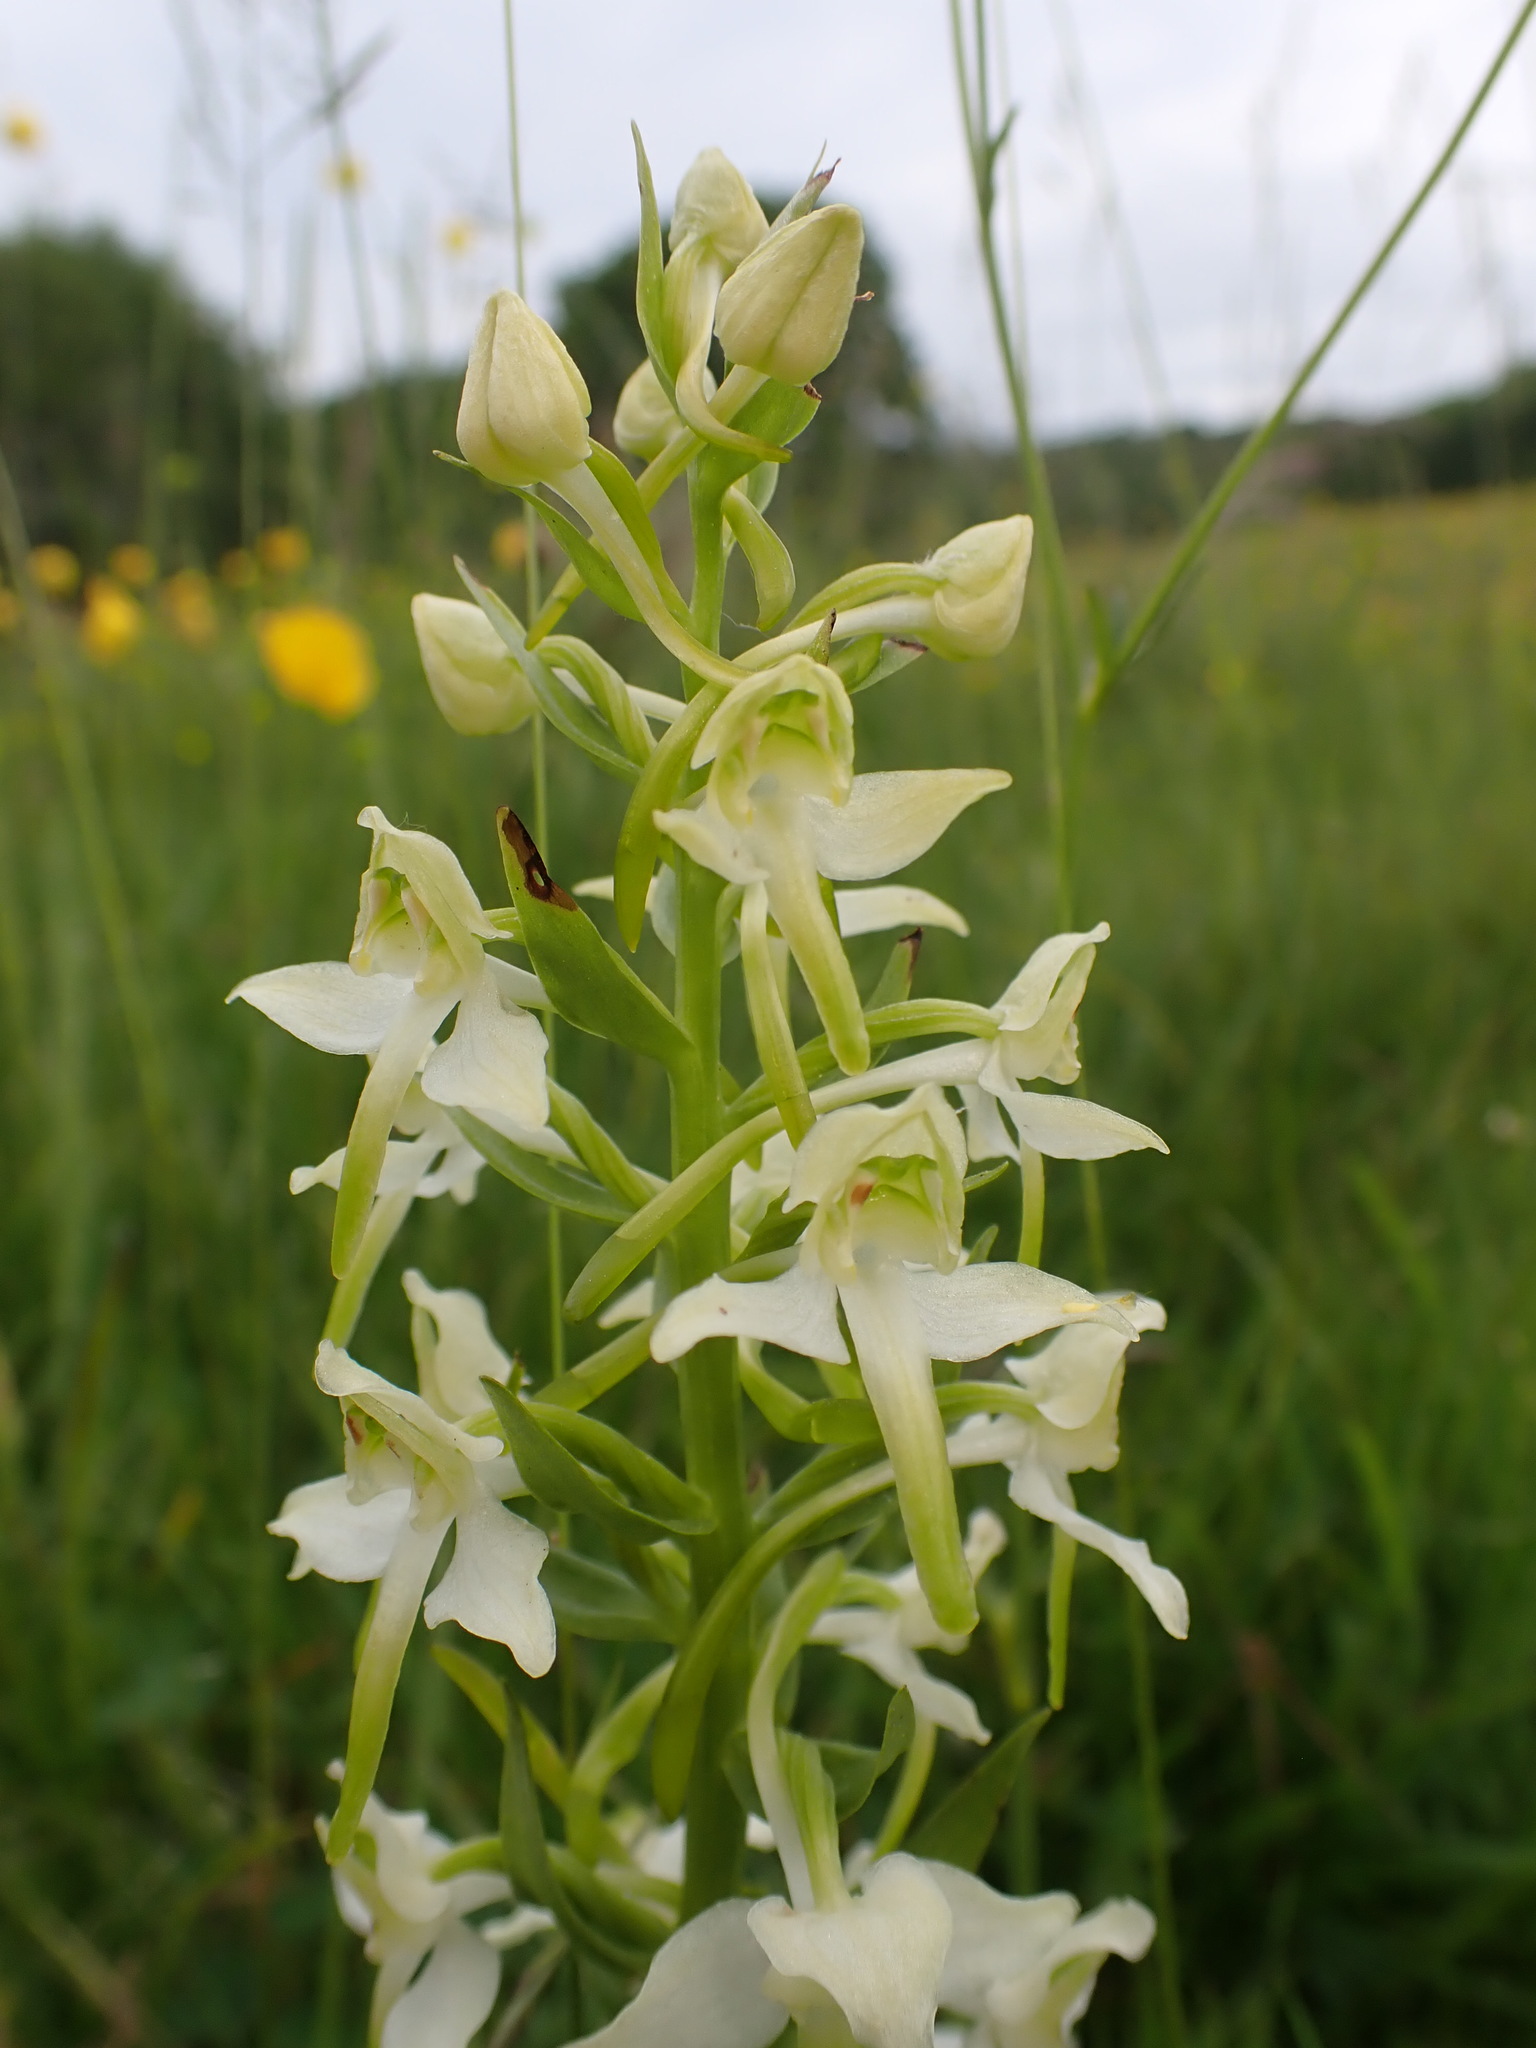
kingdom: Plantae
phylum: Tracheophyta
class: Liliopsida
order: Asparagales
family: Orchidaceae
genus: Platanthera
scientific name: Platanthera chlorantha
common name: Greater butterfly-orchid
